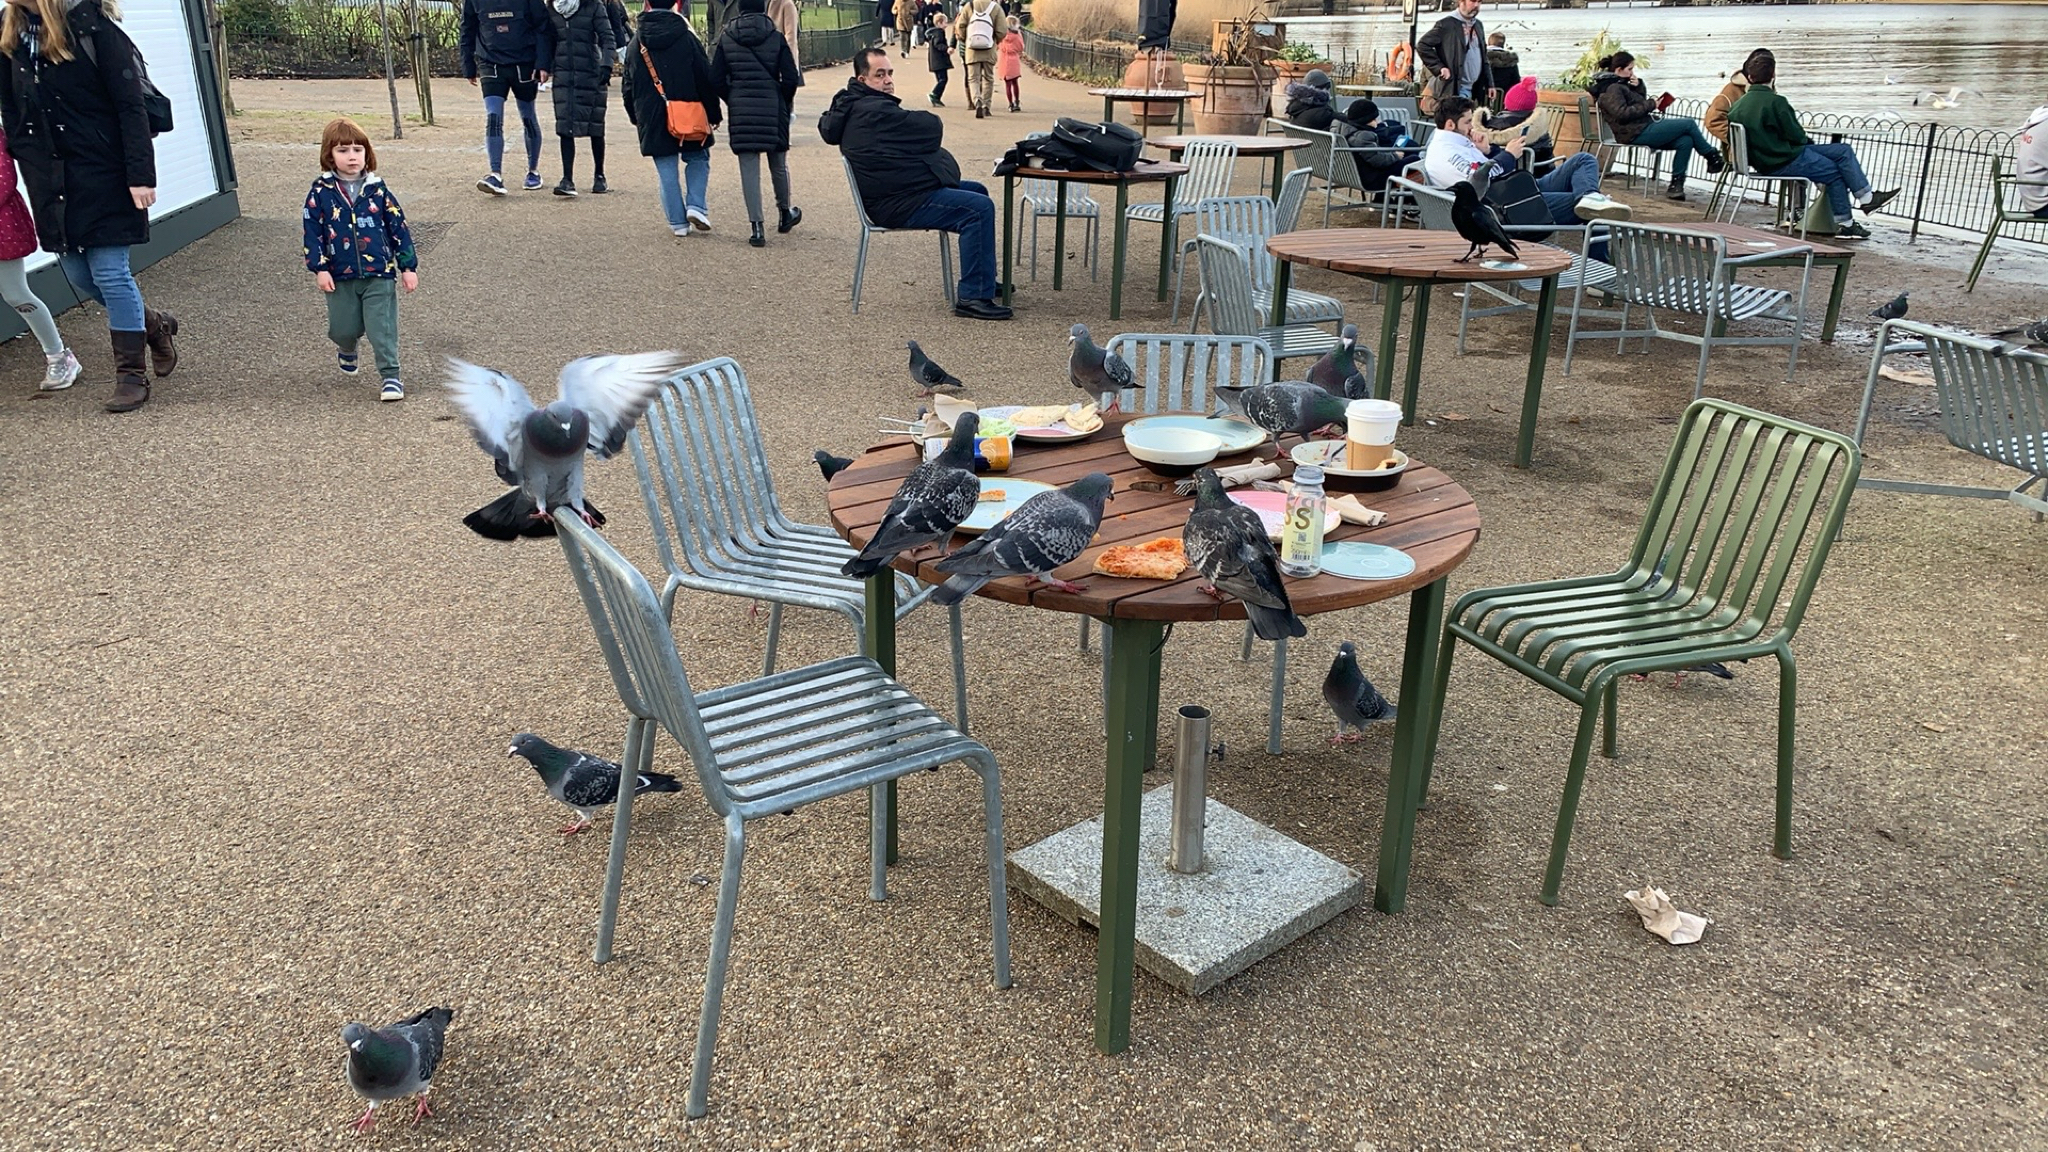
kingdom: Animalia
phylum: Chordata
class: Aves
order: Columbiformes
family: Columbidae
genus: Columba
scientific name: Columba livia
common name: Rock pigeon
